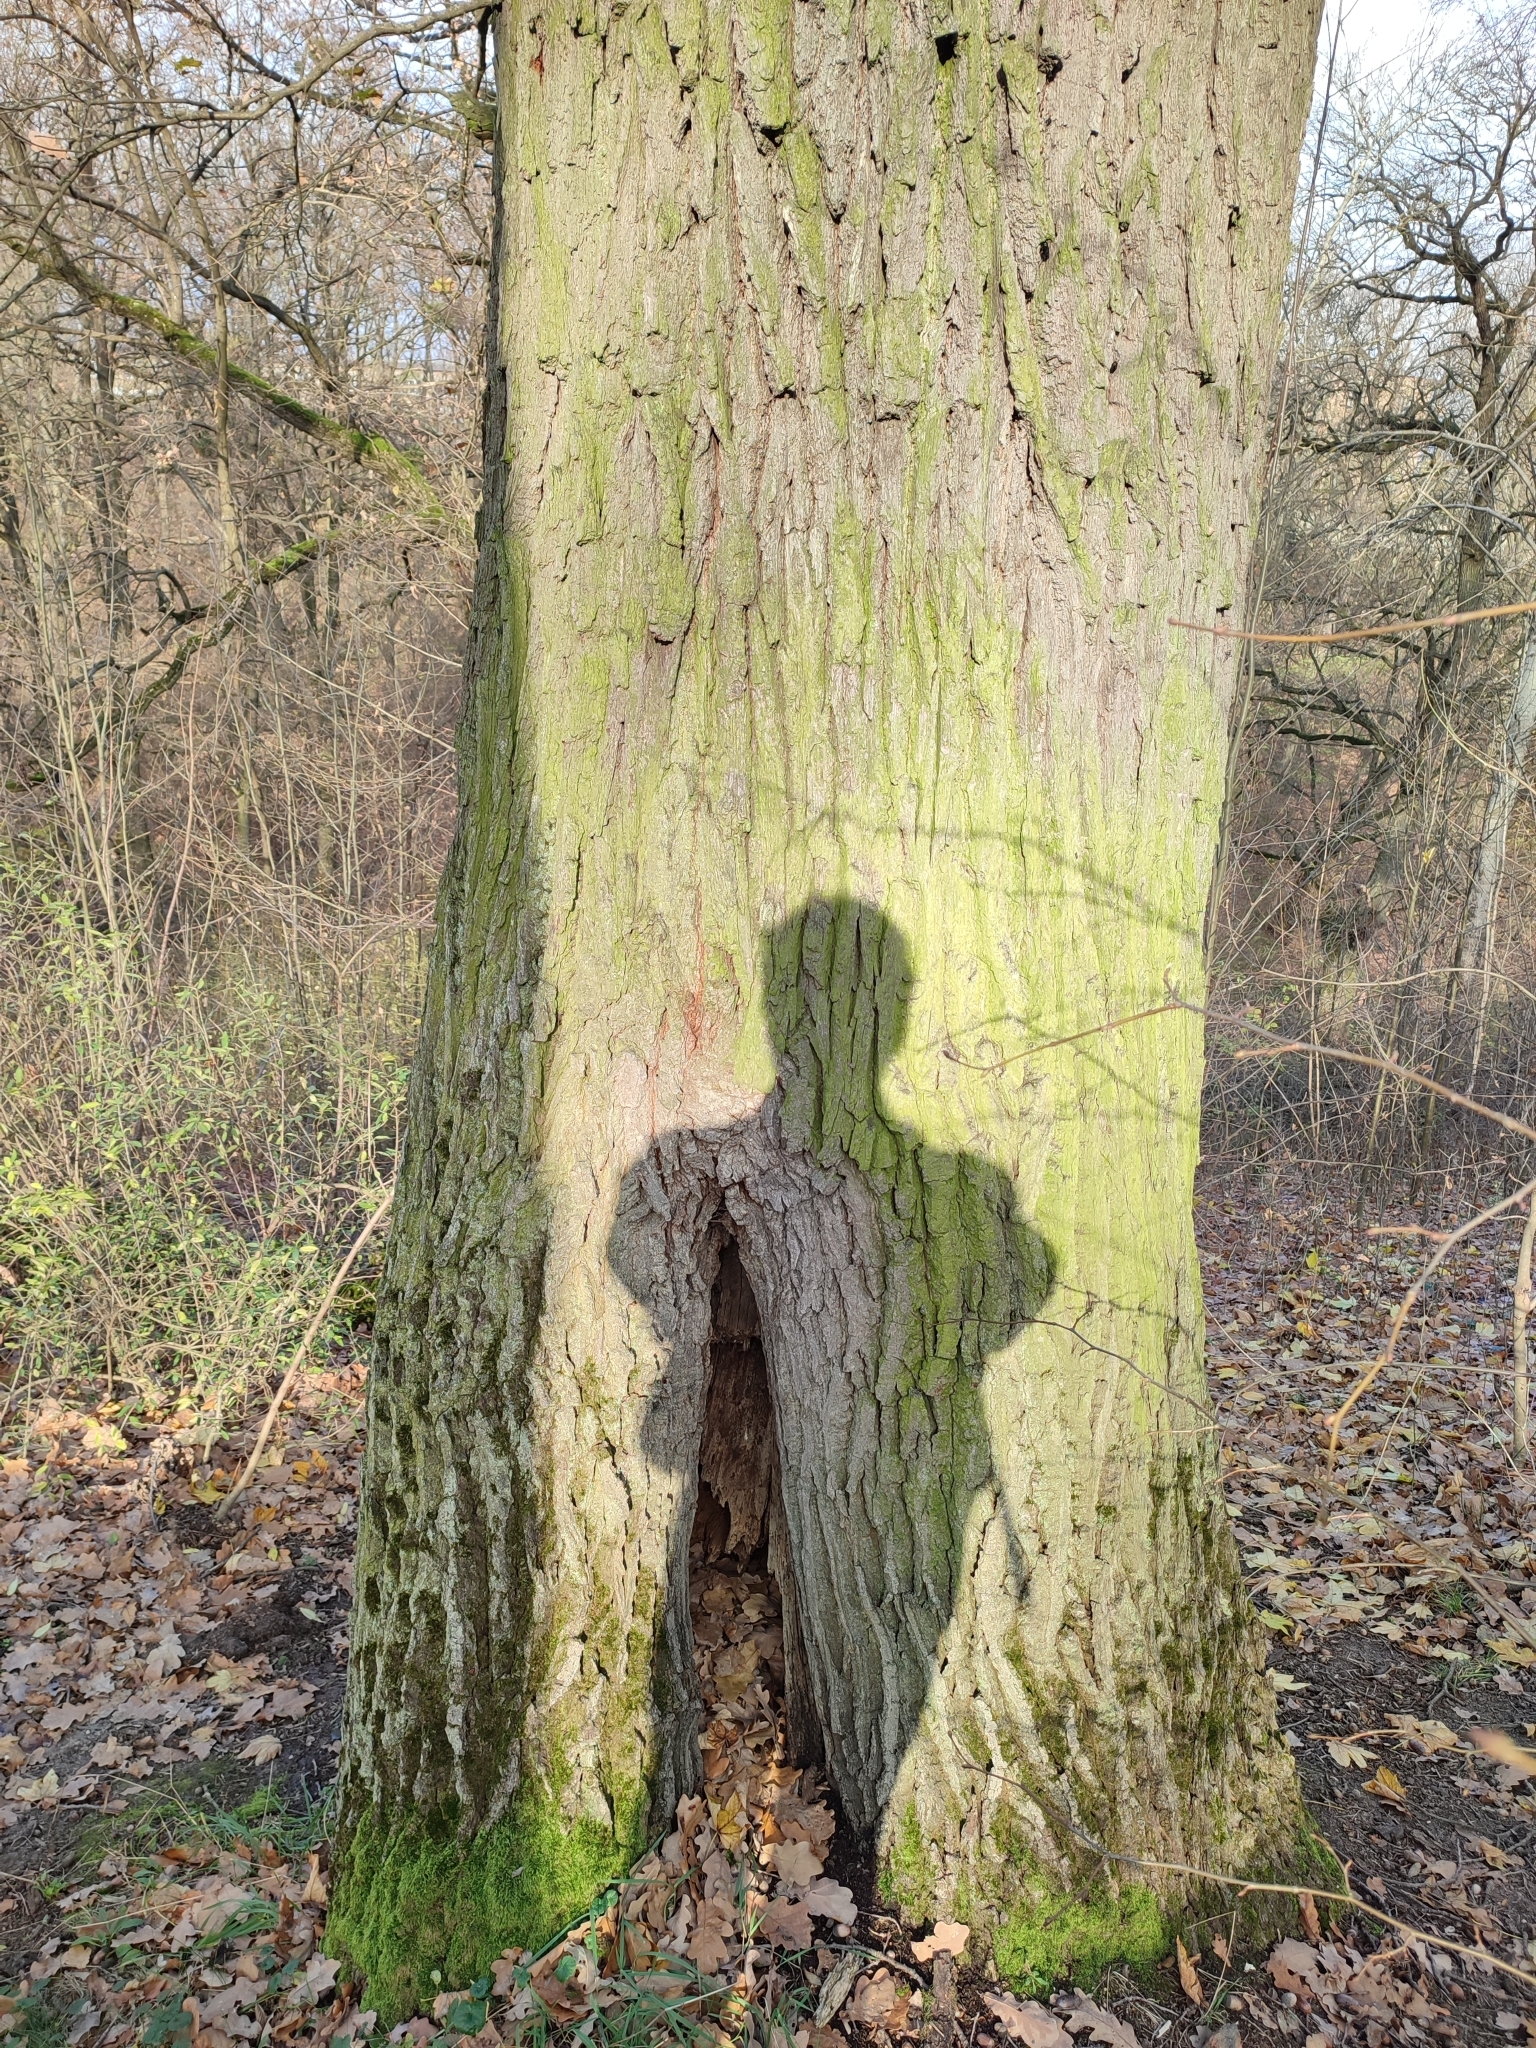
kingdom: Plantae
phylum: Tracheophyta
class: Magnoliopsida
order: Fagales
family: Fagaceae
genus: Quercus
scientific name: Quercus robur
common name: Pedunculate oak
